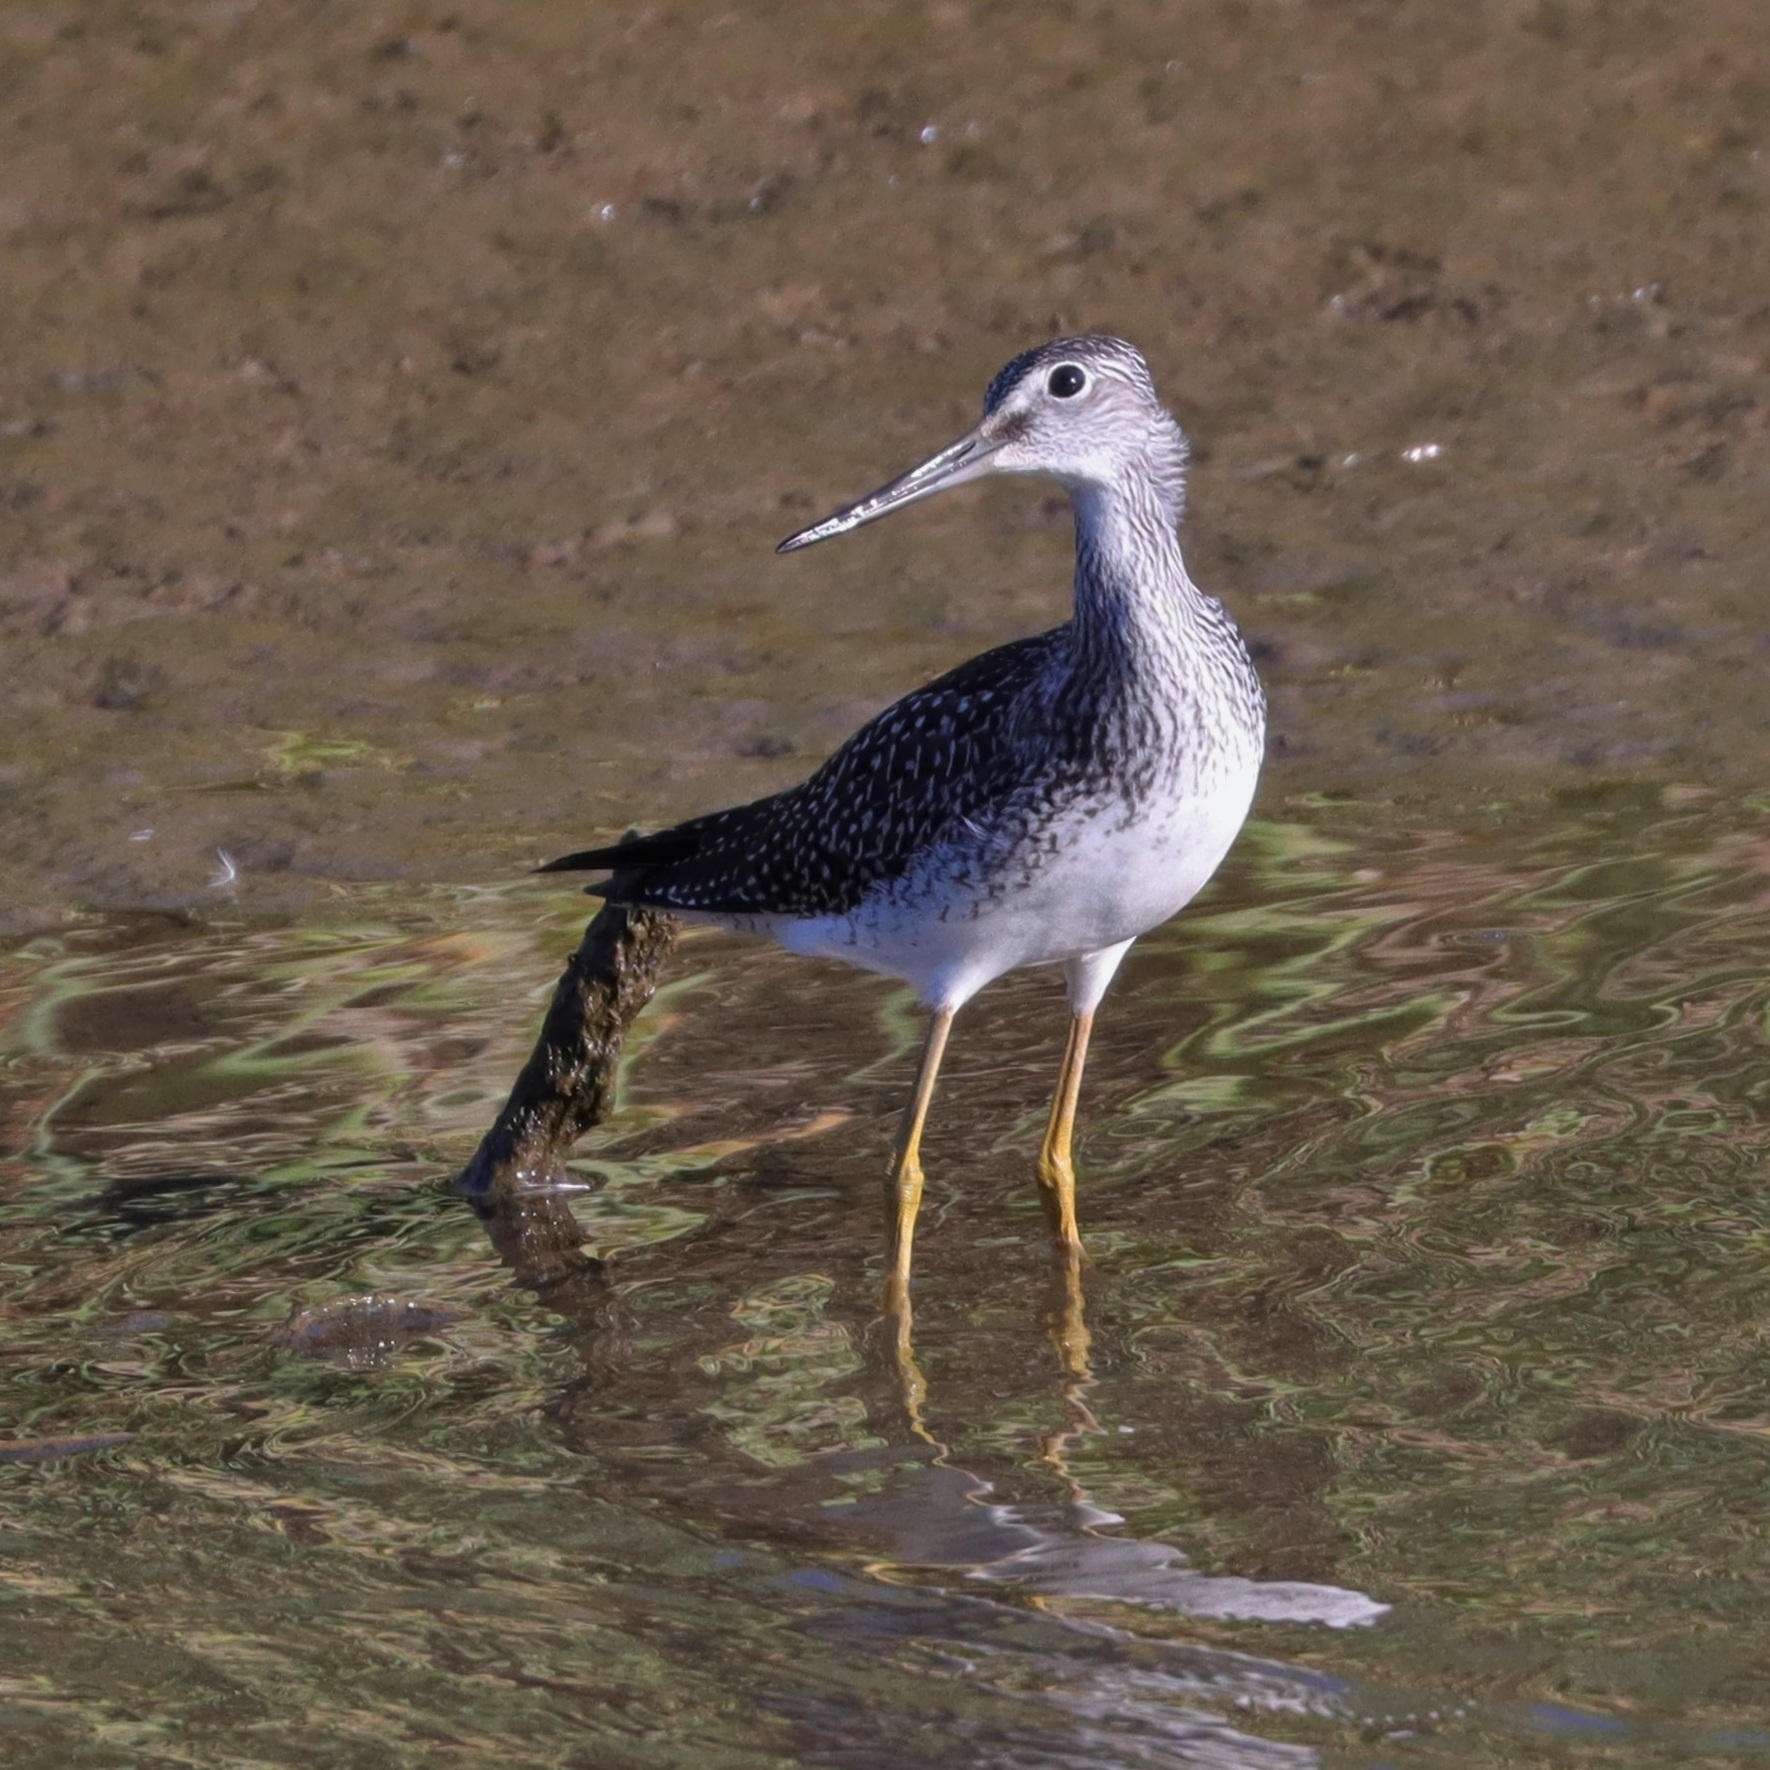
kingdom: Animalia
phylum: Chordata
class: Aves
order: Charadriiformes
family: Scolopacidae
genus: Tringa
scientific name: Tringa melanoleuca
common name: Greater yellowlegs
